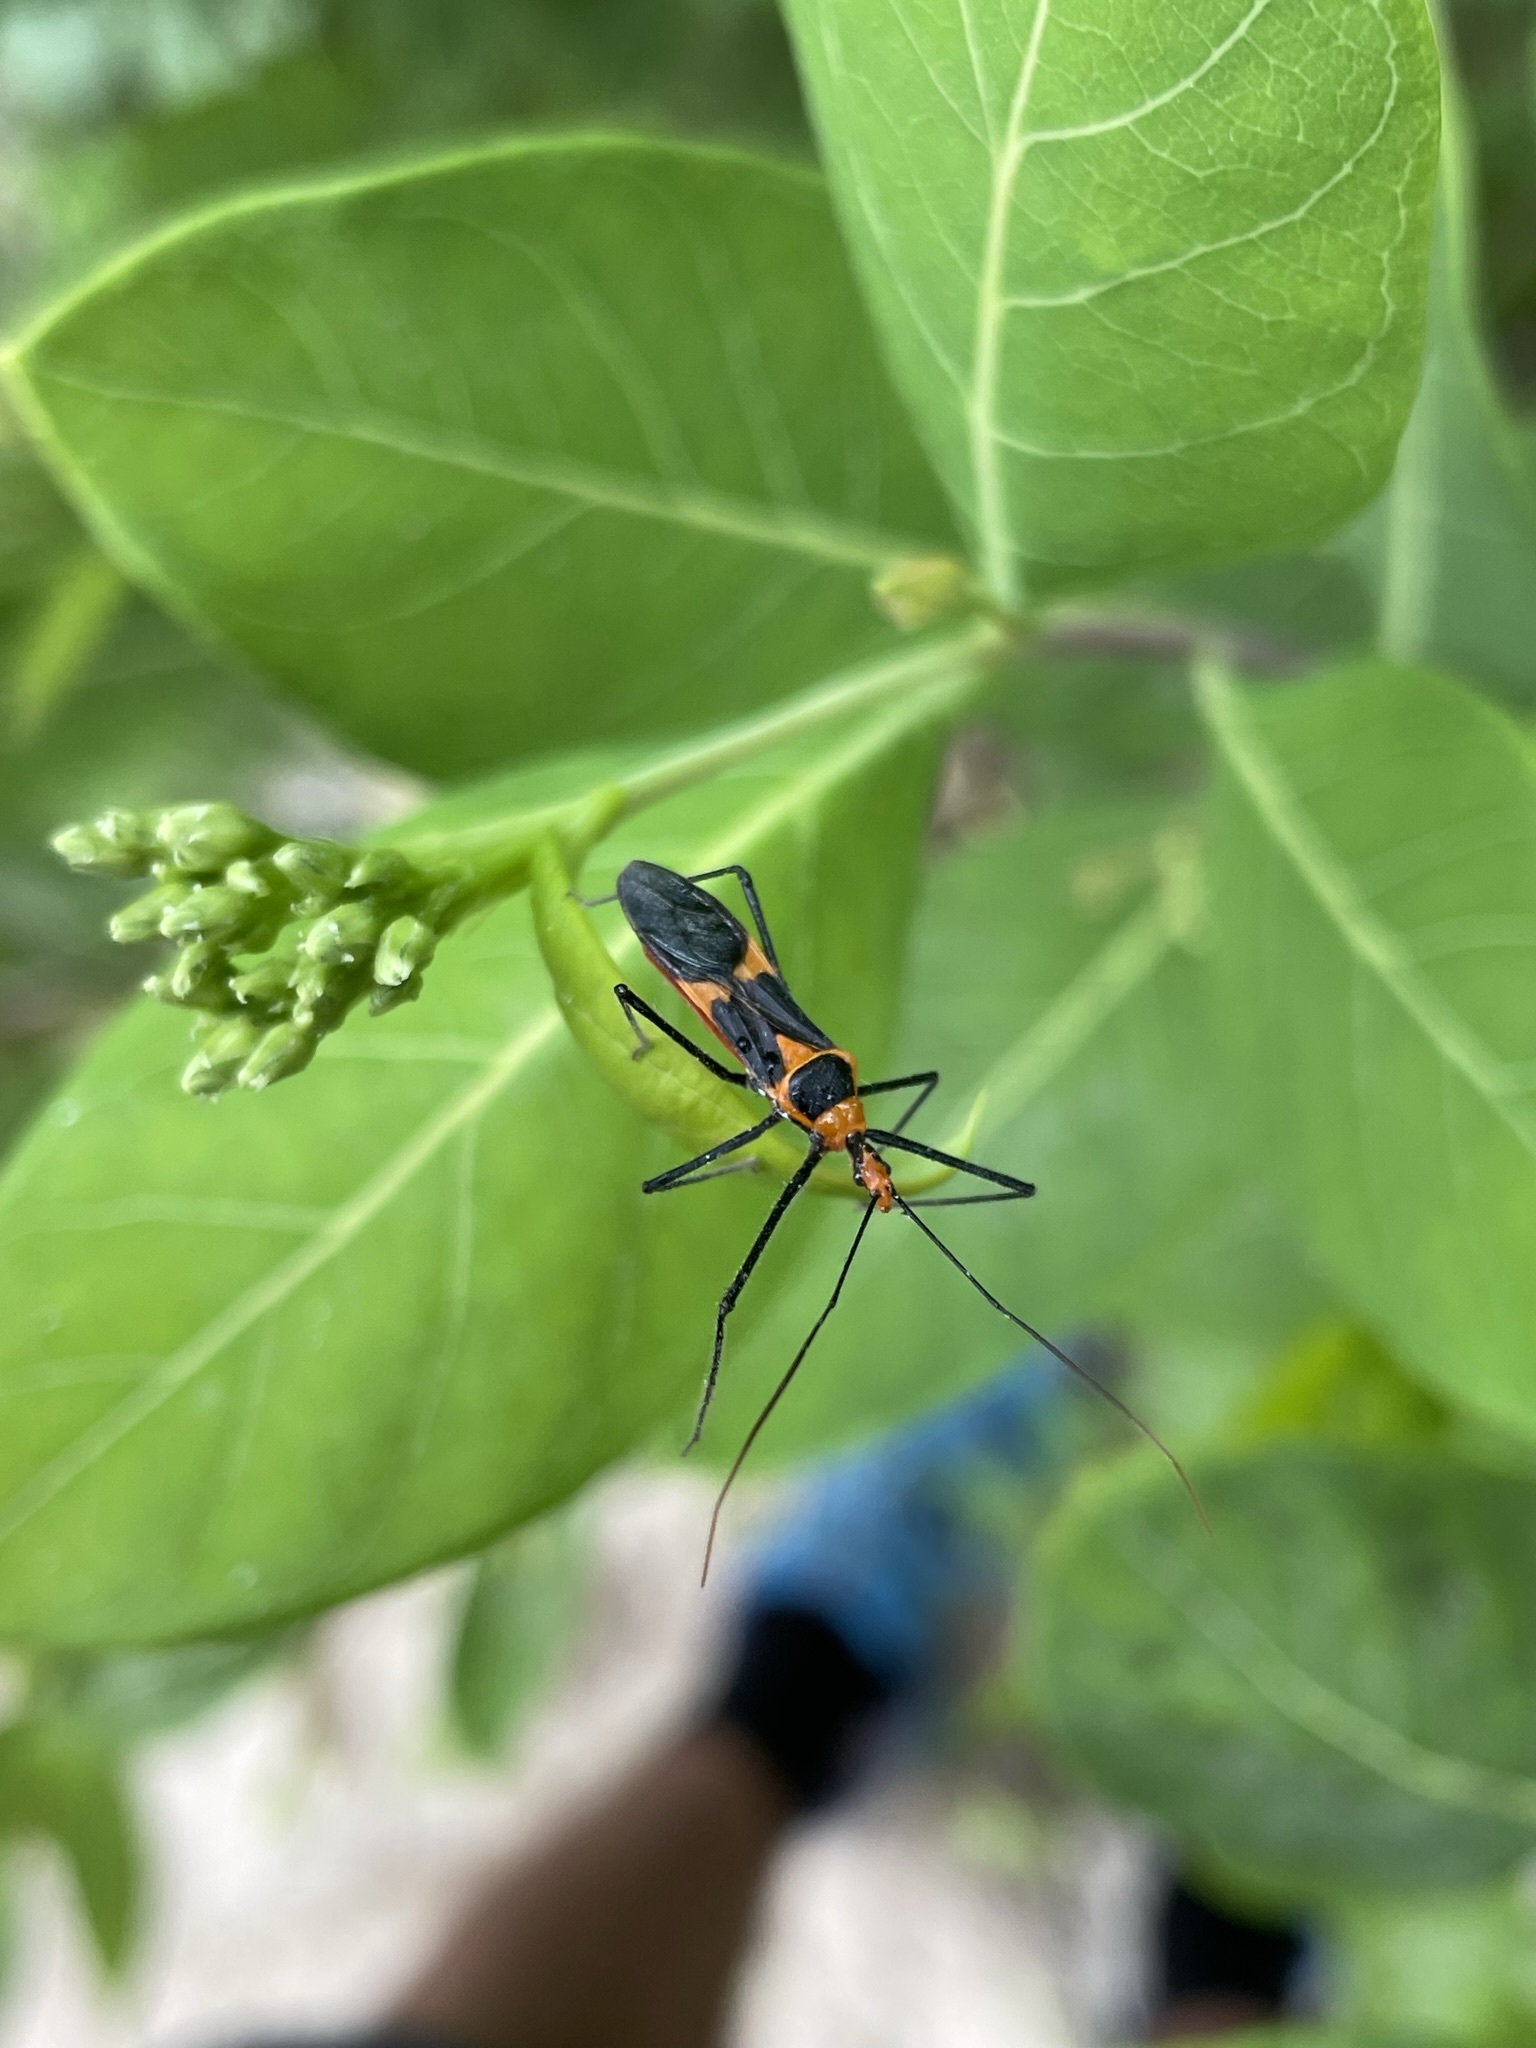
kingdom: Animalia
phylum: Arthropoda
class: Insecta
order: Hemiptera
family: Reduviidae
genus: Zelus
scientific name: Zelus longipes
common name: Milkweed assassin bug
